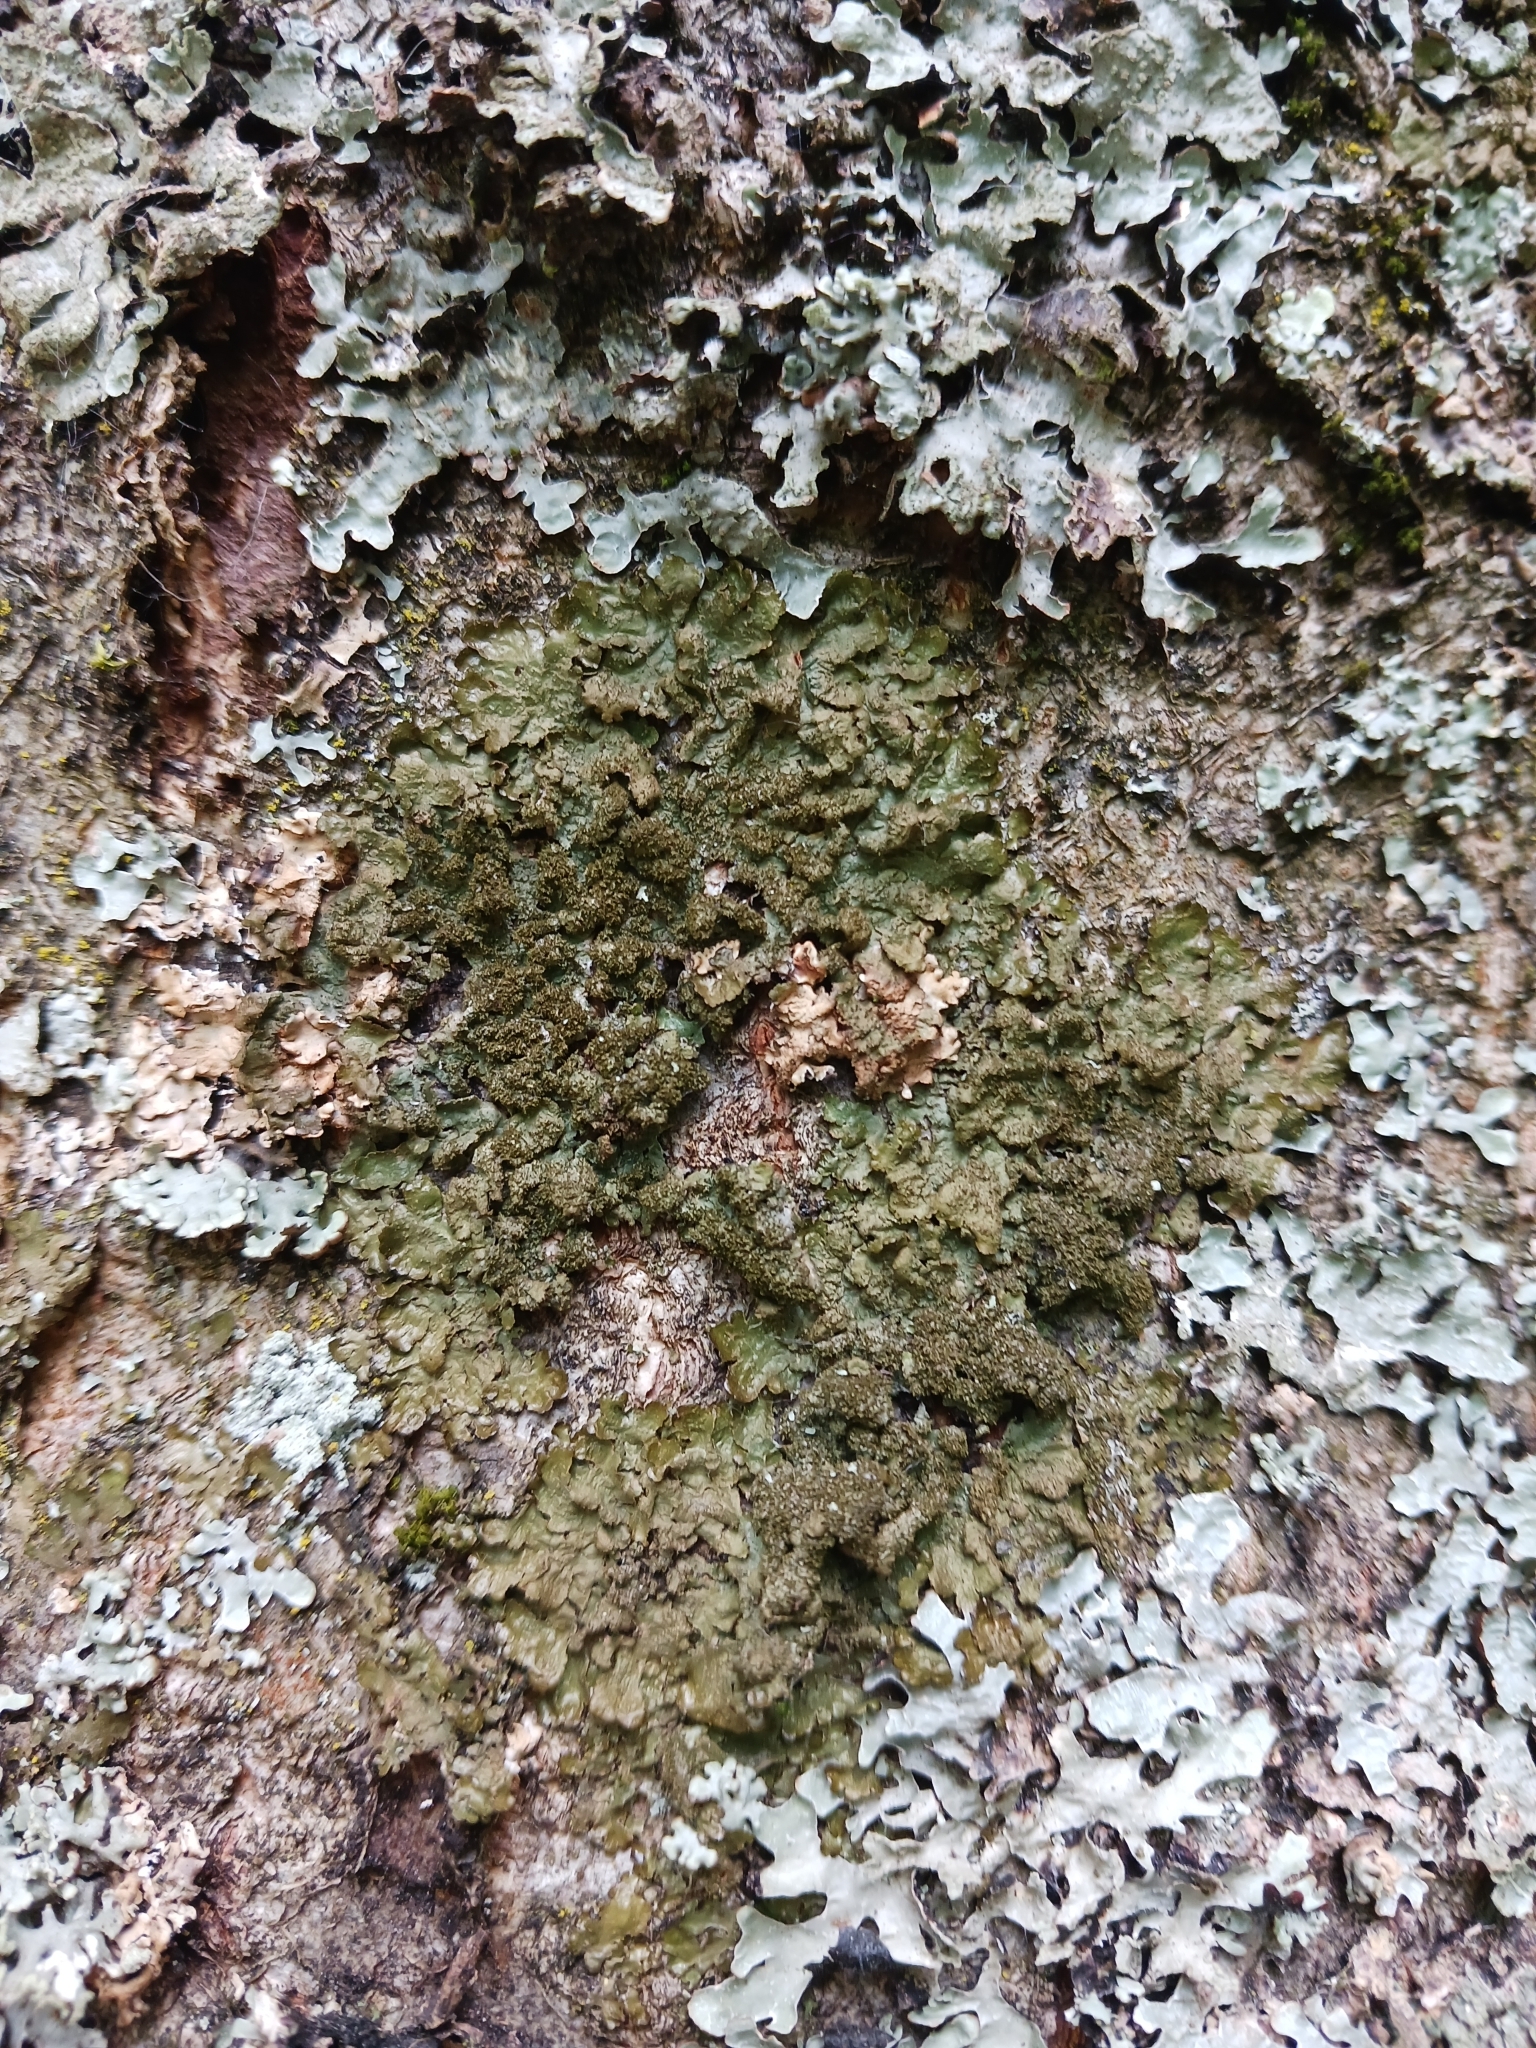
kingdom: Fungi
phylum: Ascomycota
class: Lecanoromycetes
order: Lecanorales
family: Parmeliaceae
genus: Melanelixia
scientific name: Melanelixia glabratula
